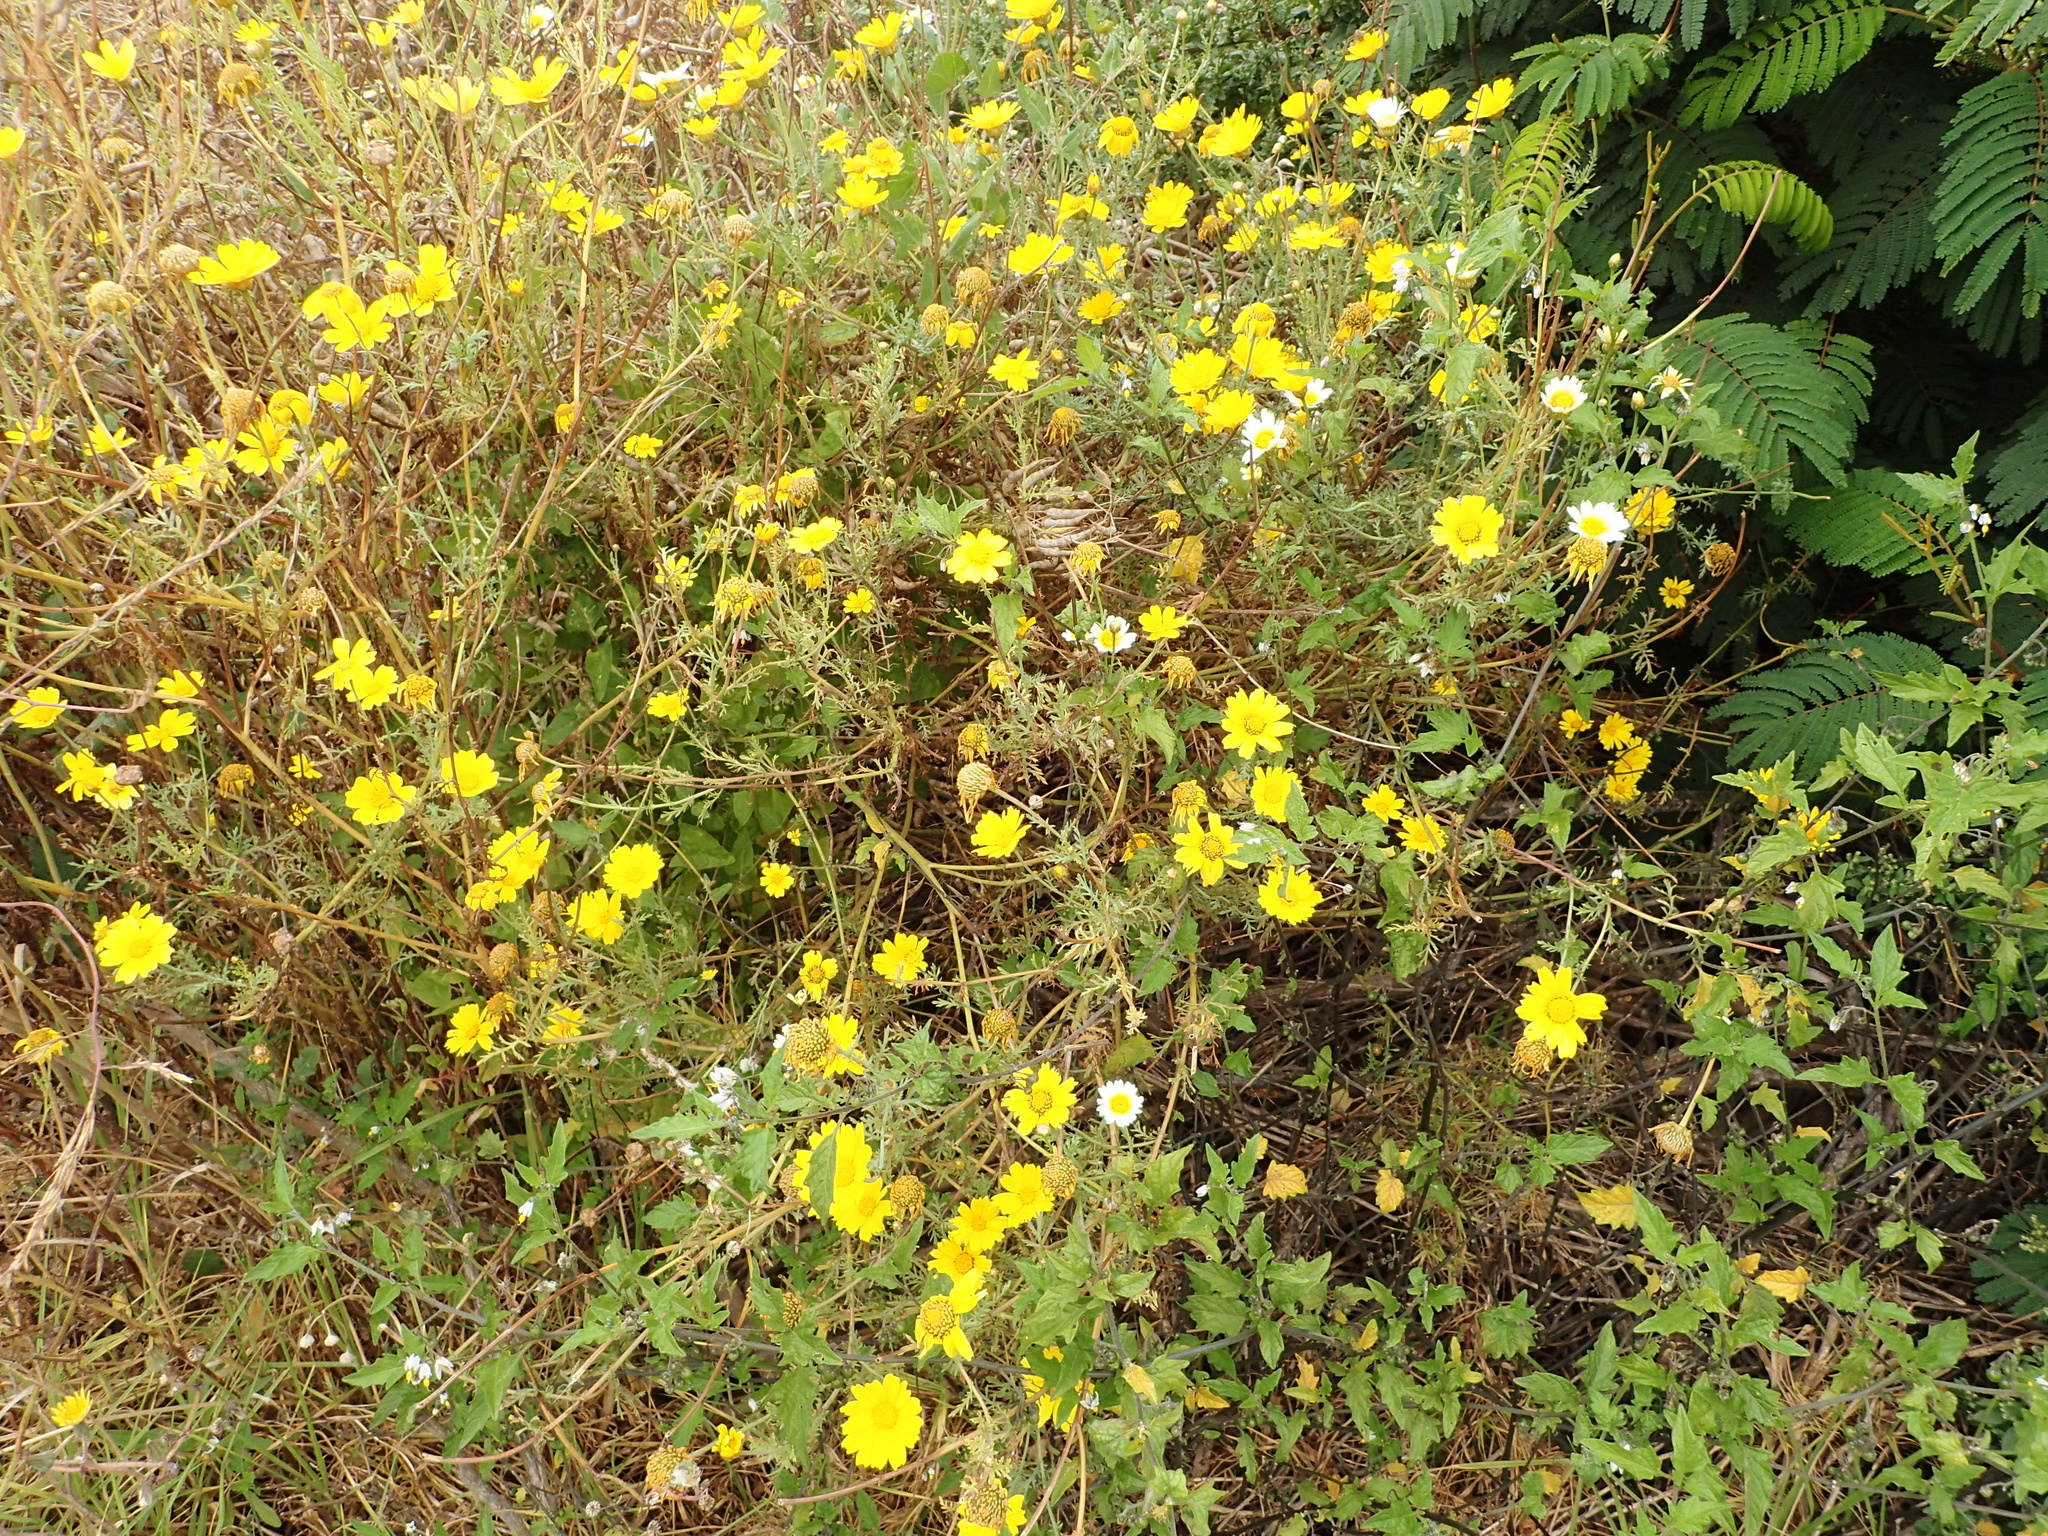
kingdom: Plantae
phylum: Tracheophyta
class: Magnoliopsida
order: Asterales
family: Asteraceae
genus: Glebionis
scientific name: Glebionis coronaria
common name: Crowndaisy
